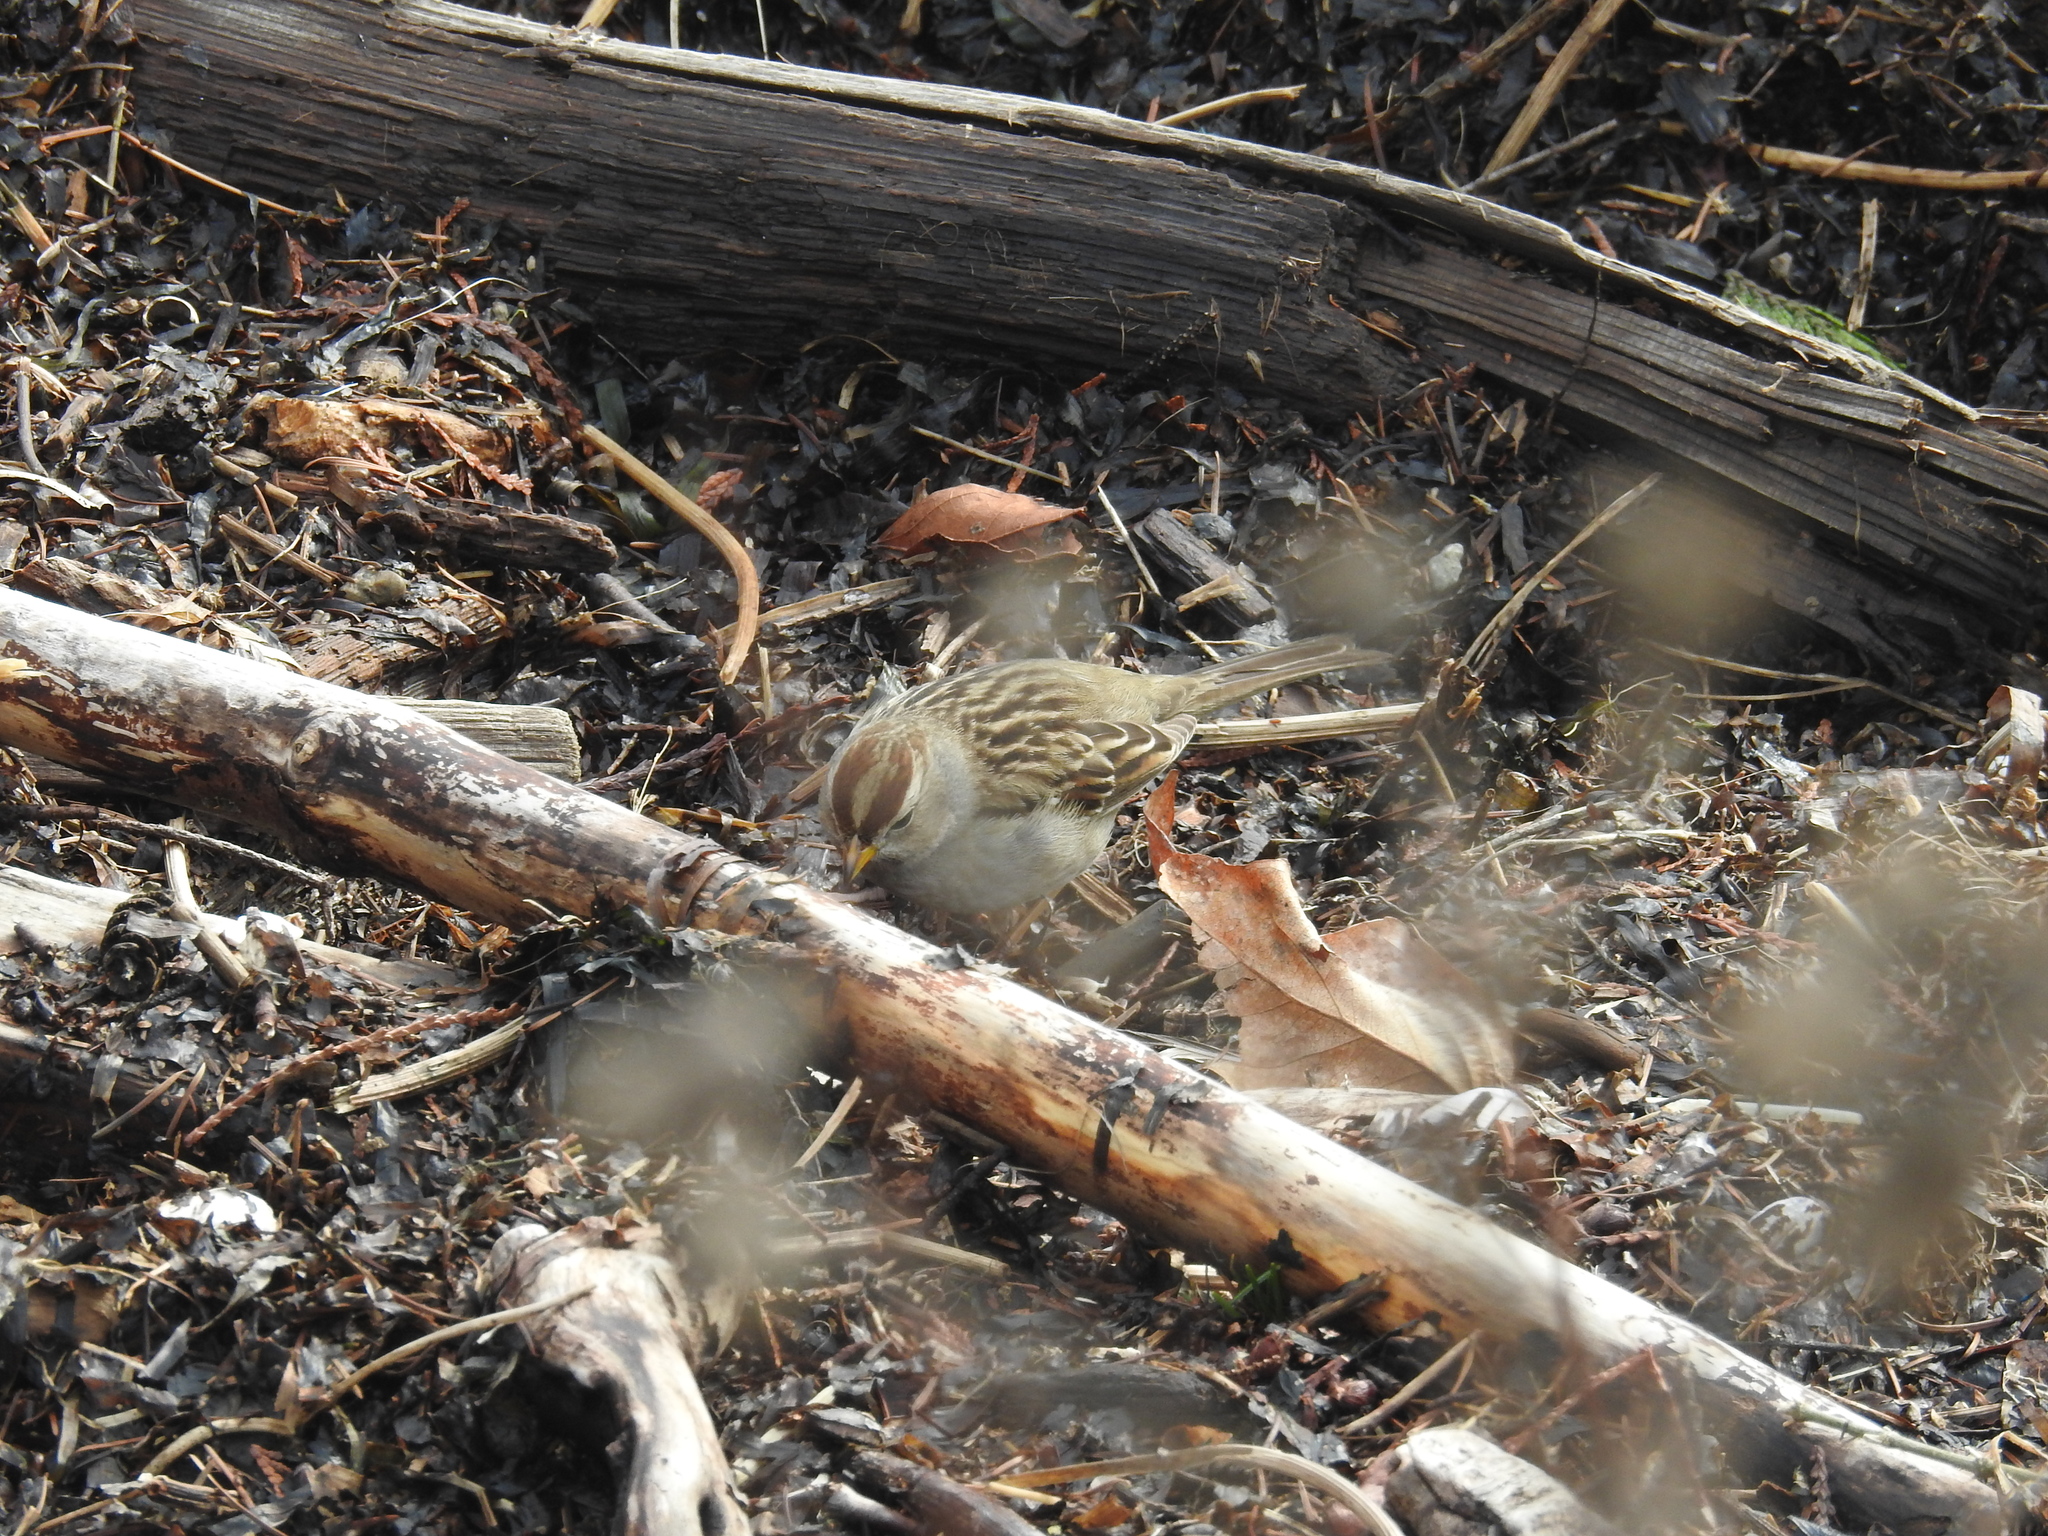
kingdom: Animalia
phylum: Chordata
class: Aves
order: Passeriformes
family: Passerellidae
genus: Zonotrichia
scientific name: Zonotrichia leucophrys
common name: White-crowned sparrow
